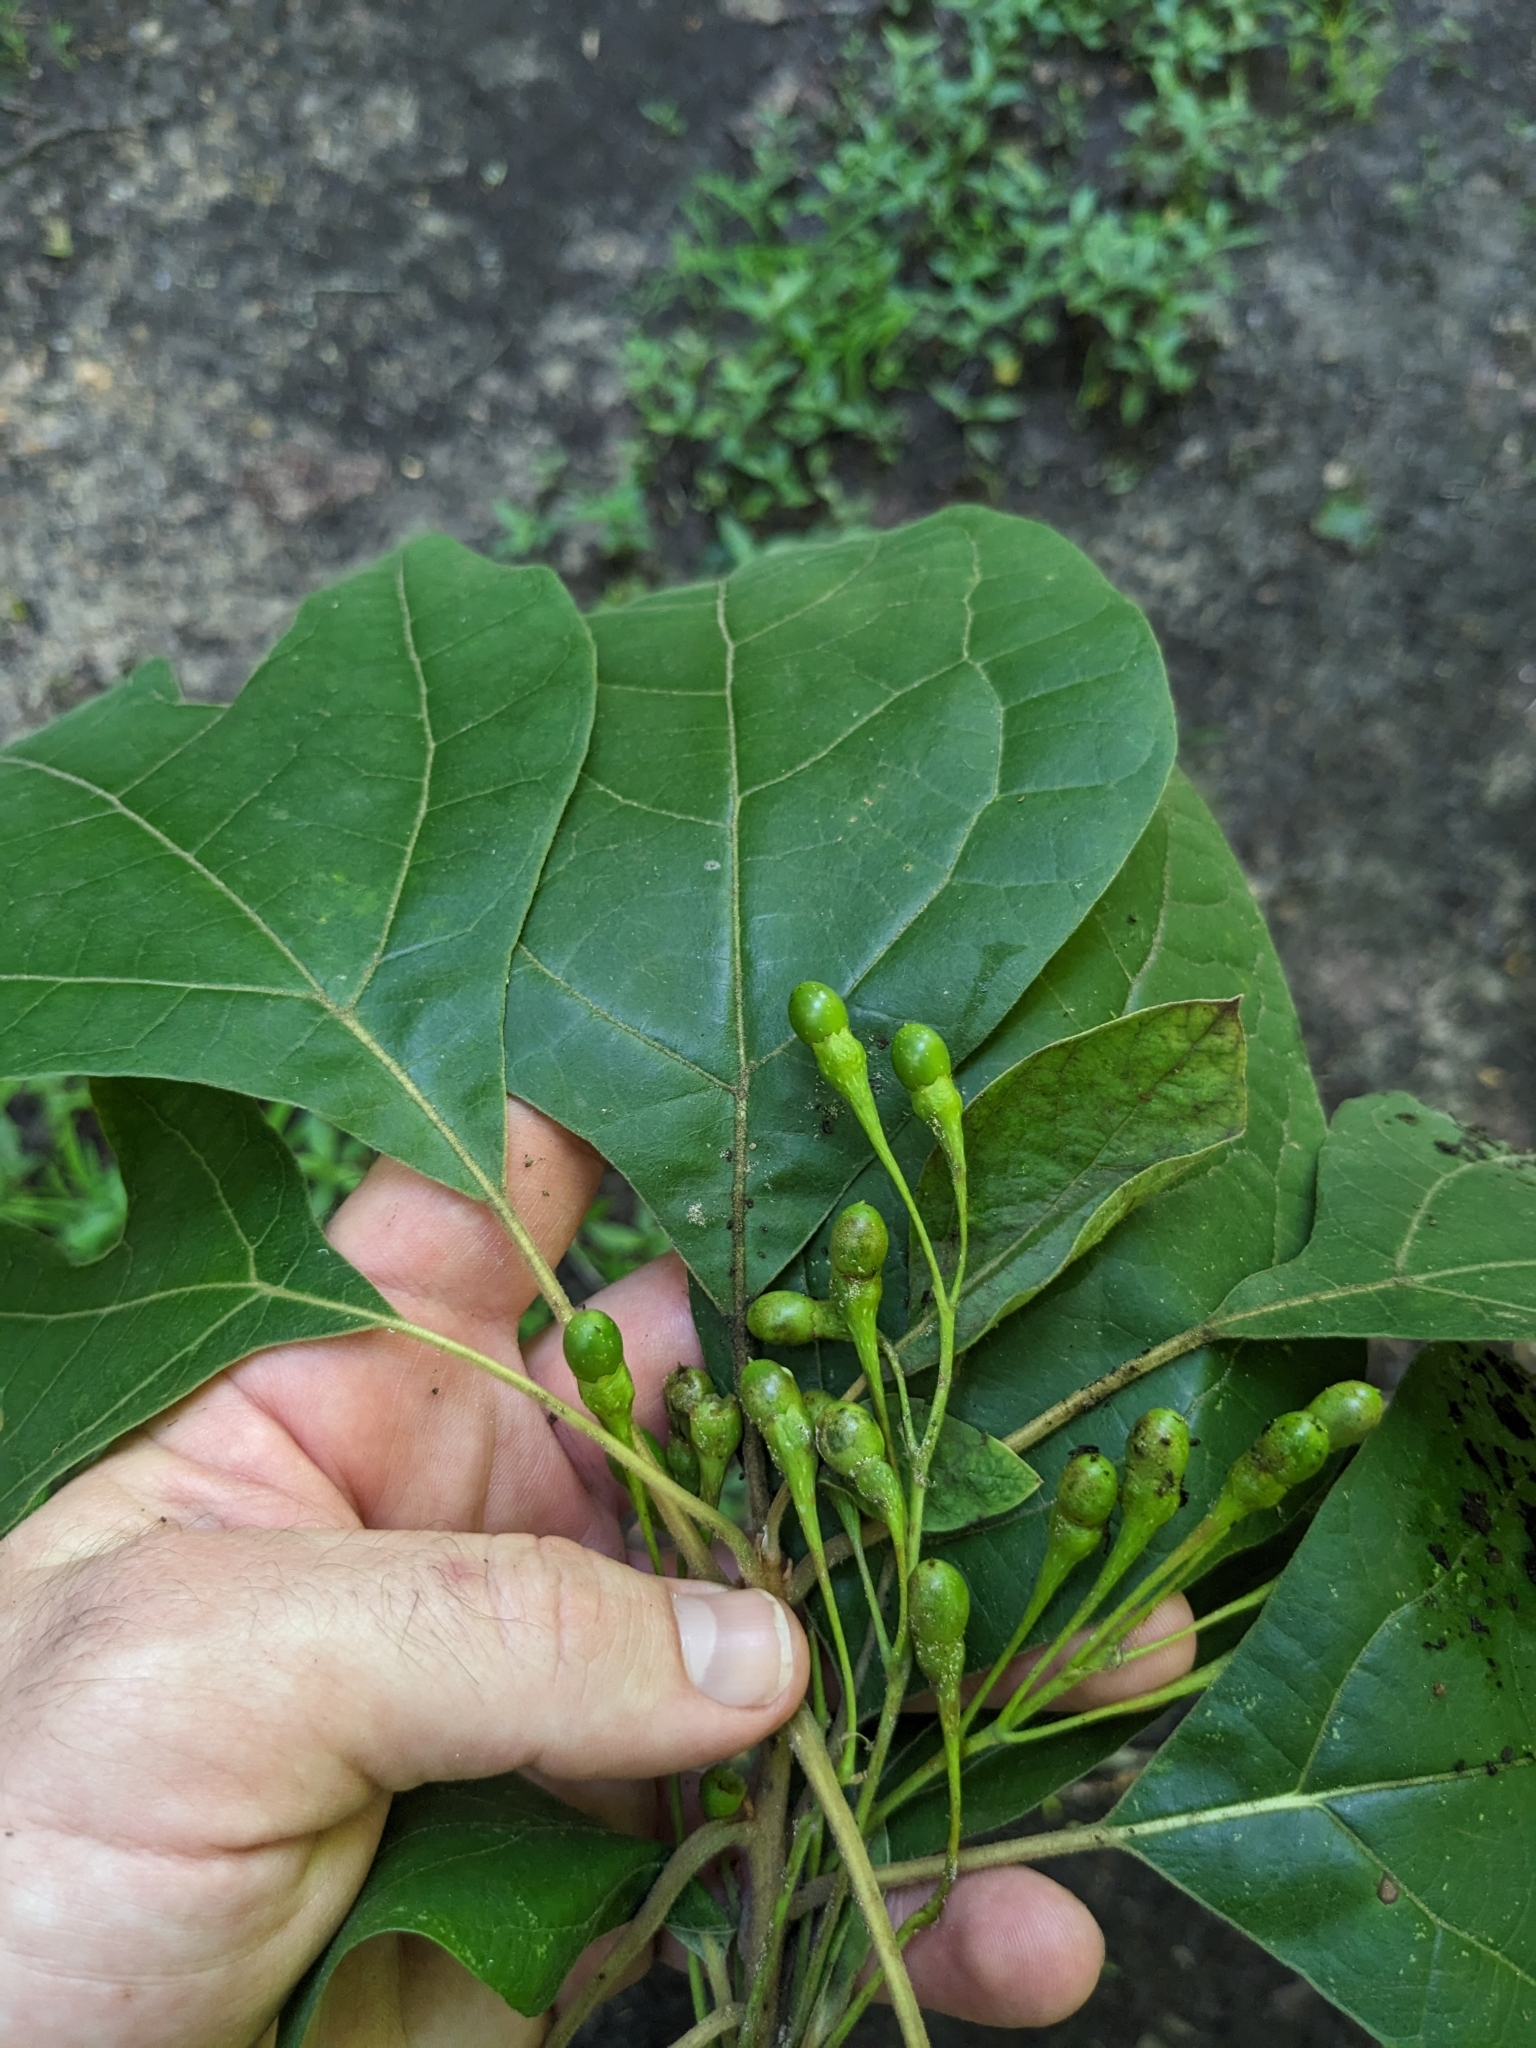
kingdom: Plantae
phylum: Tracheophyta
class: Magnoliopsida
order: Laurales
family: Lauraceae
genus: Sassafras
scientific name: Sassafras albidum
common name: Sassafras
